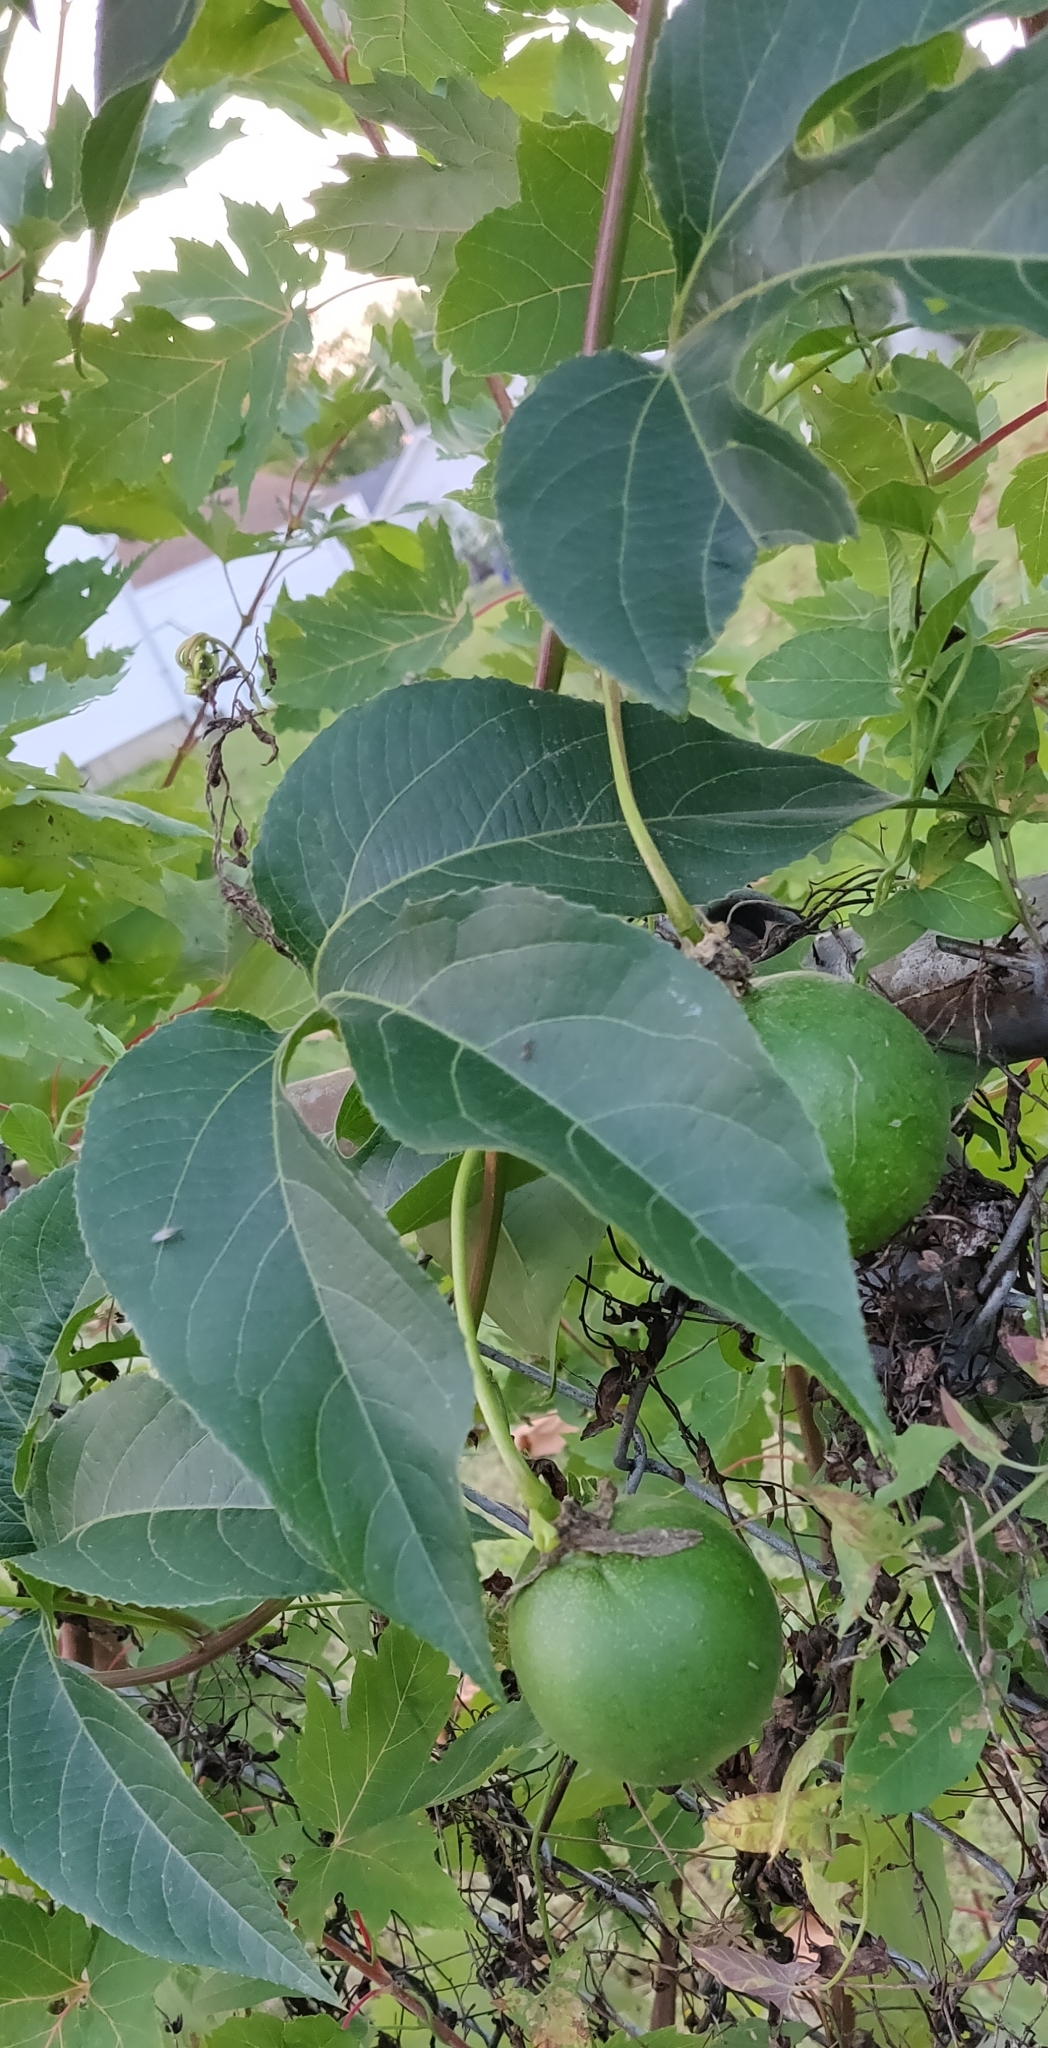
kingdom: Plantae
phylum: Tracheophyta
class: Magnoliopsida
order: Malpighiales
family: Passifloraceae
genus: Passiflora
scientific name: Passiflora incarnata
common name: Apricot-vine
